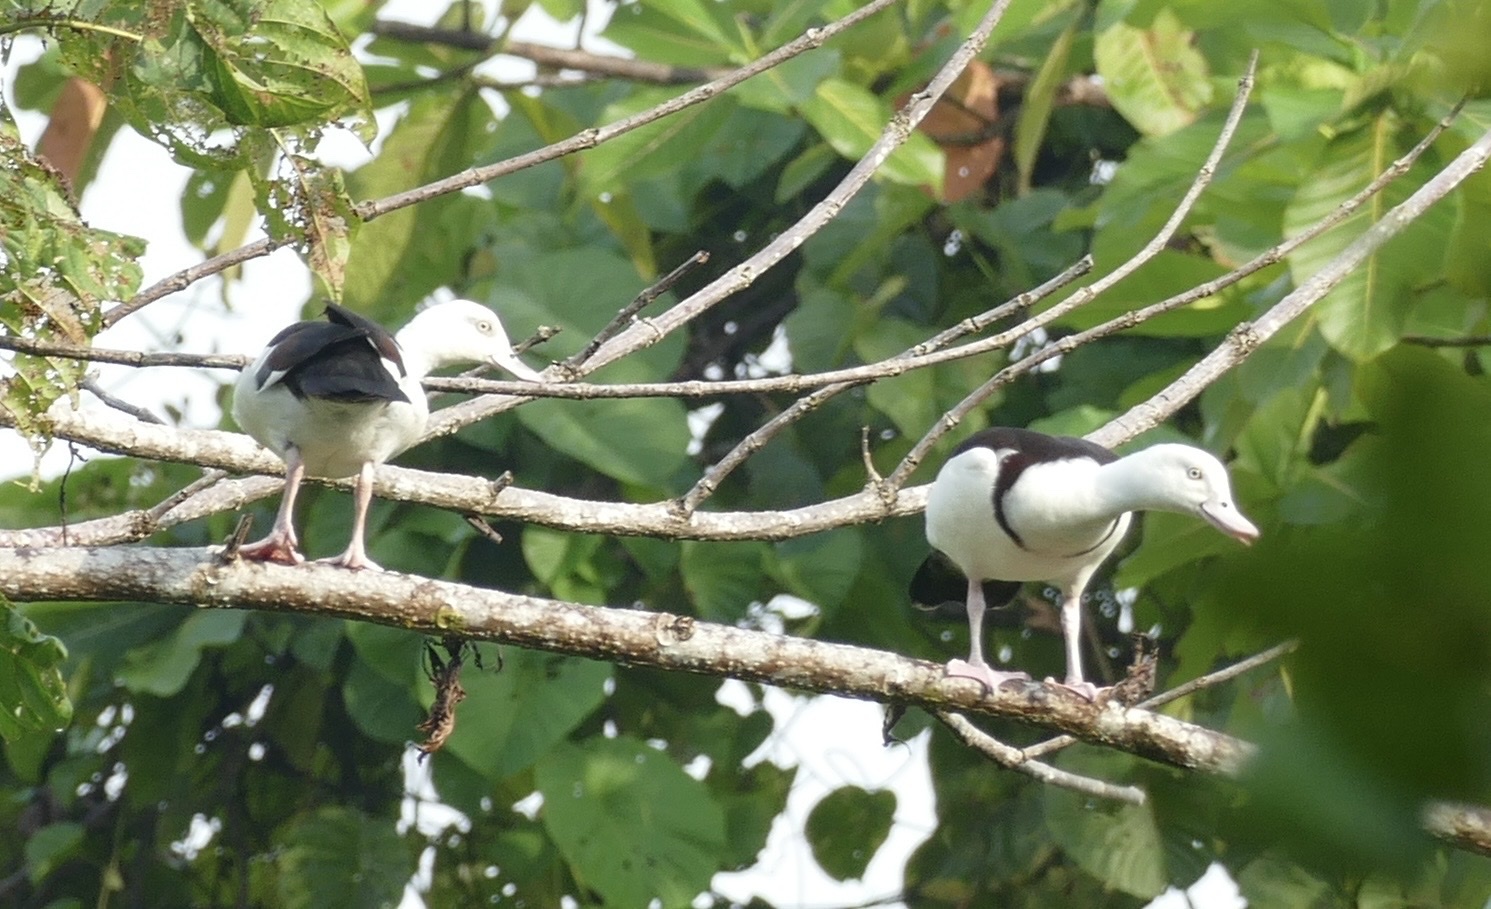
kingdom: Animalia
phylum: Chordata
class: Aves
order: Anseriformes
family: Anatidae
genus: Radjah
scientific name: Radjah radjah
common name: Radjah shelduck
